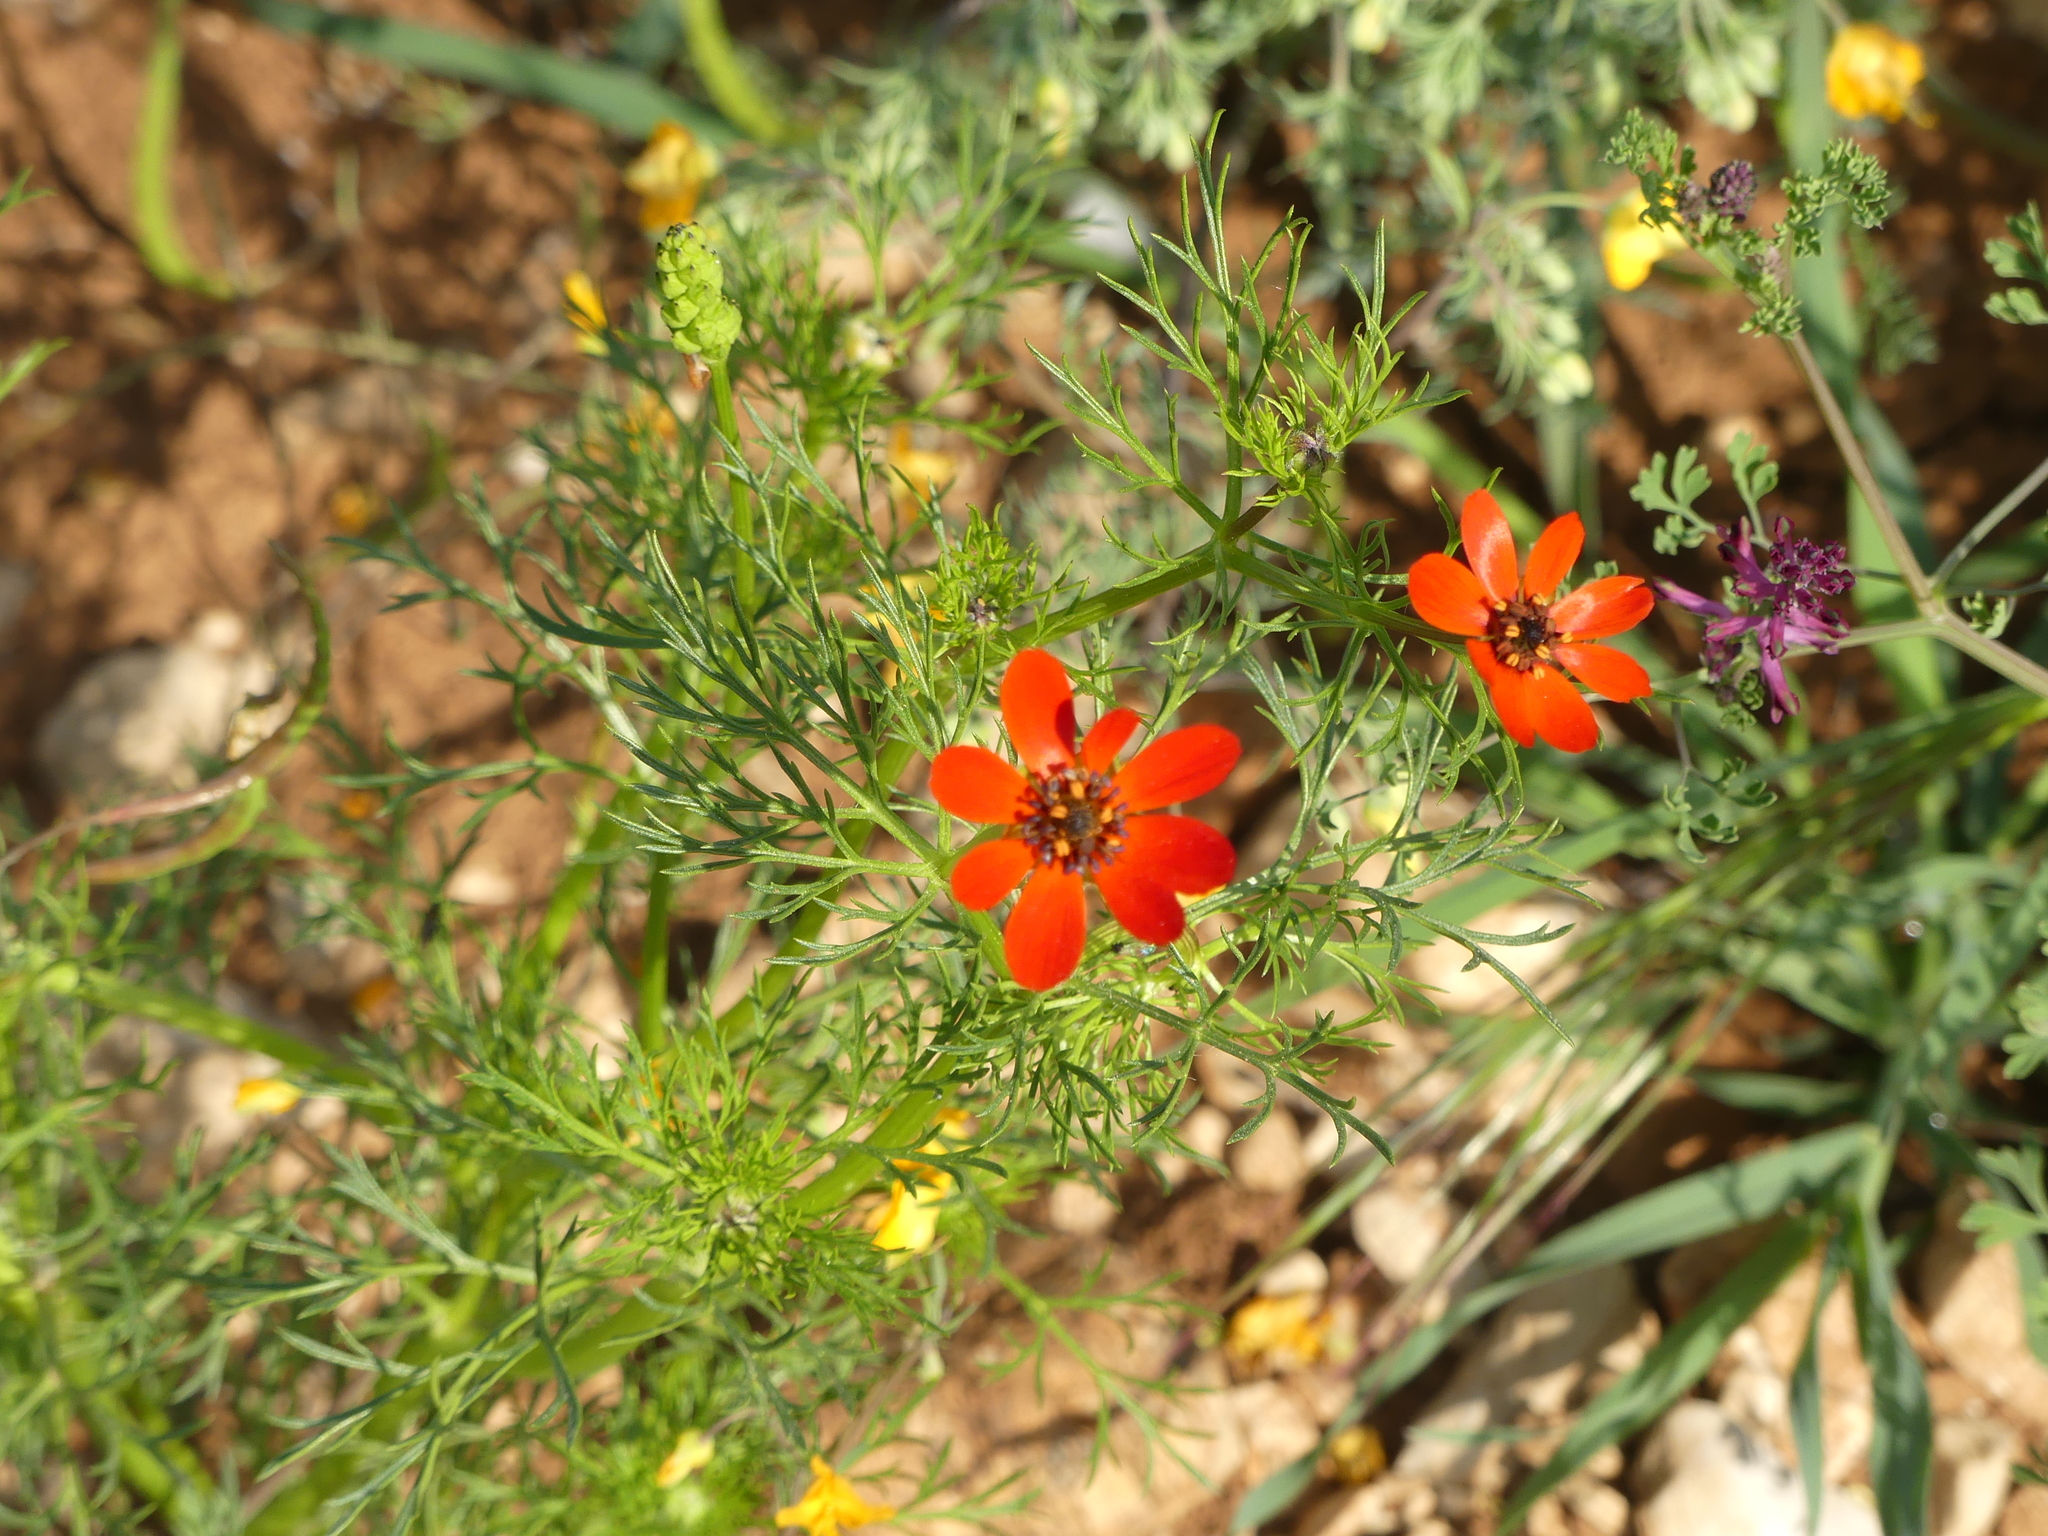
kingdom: Plantae
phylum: Tracheophyta
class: Magnoliopsida
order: Ranunculales
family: Ranunculaceae
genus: Adonis
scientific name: Adonis flammea
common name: Large pheasant's-eye
